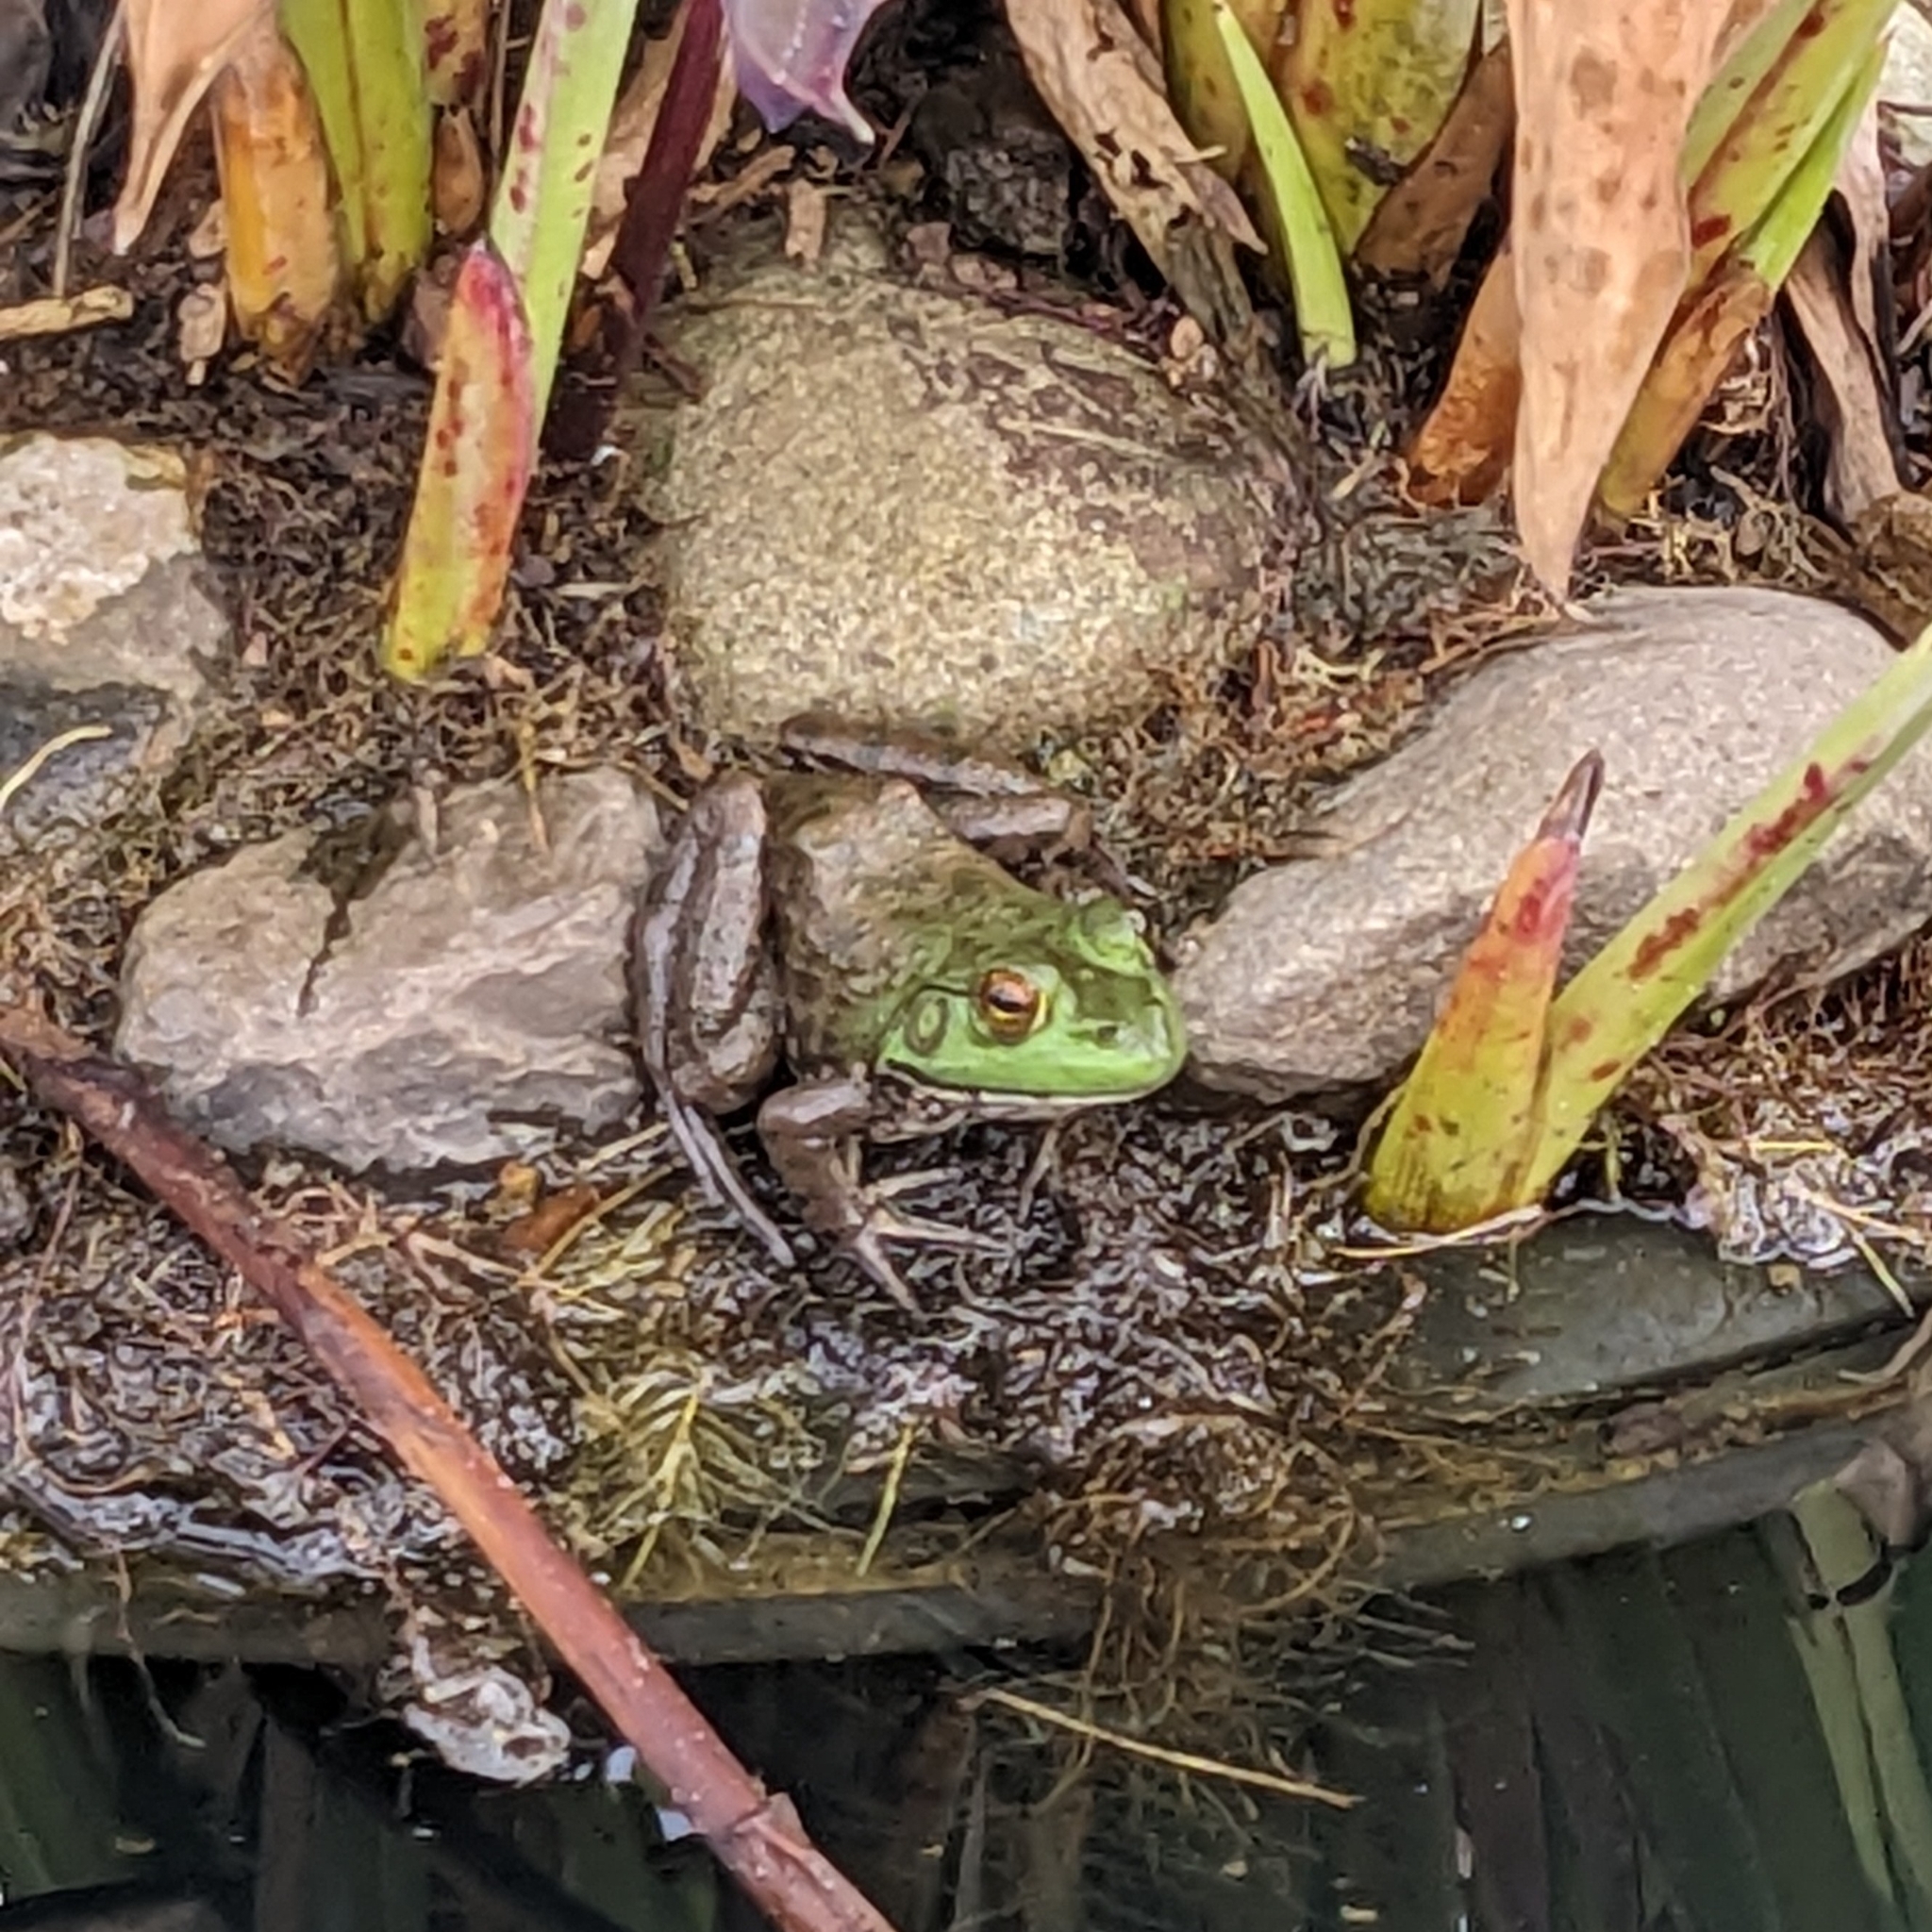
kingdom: Animalia
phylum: Chordata
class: Amphibia
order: Anura
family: Ranidae
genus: Lithobates
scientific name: Lithobates catesbeianus
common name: American bullfrog
